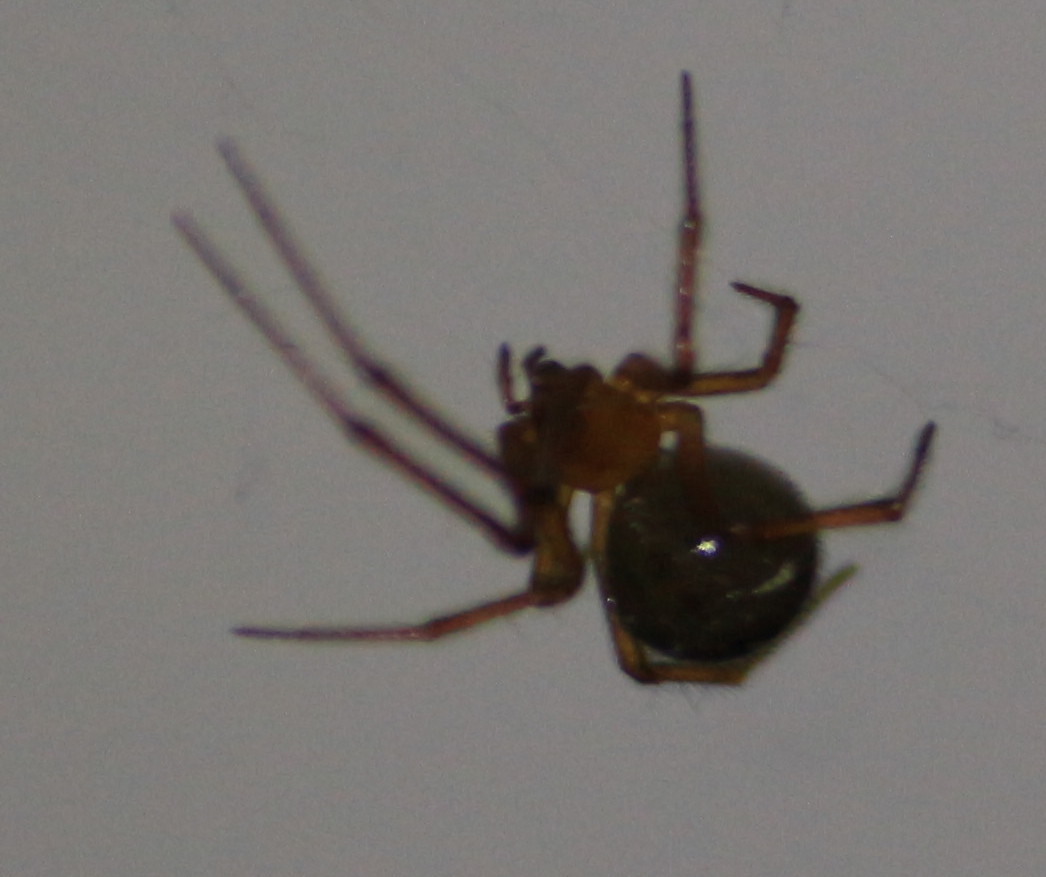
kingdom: Animalia
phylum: Arthropoda
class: Arachnida
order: Araneae
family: Theridiidae
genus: Nesticodes
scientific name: Nesticodes rufipes
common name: Cobweb spiders
